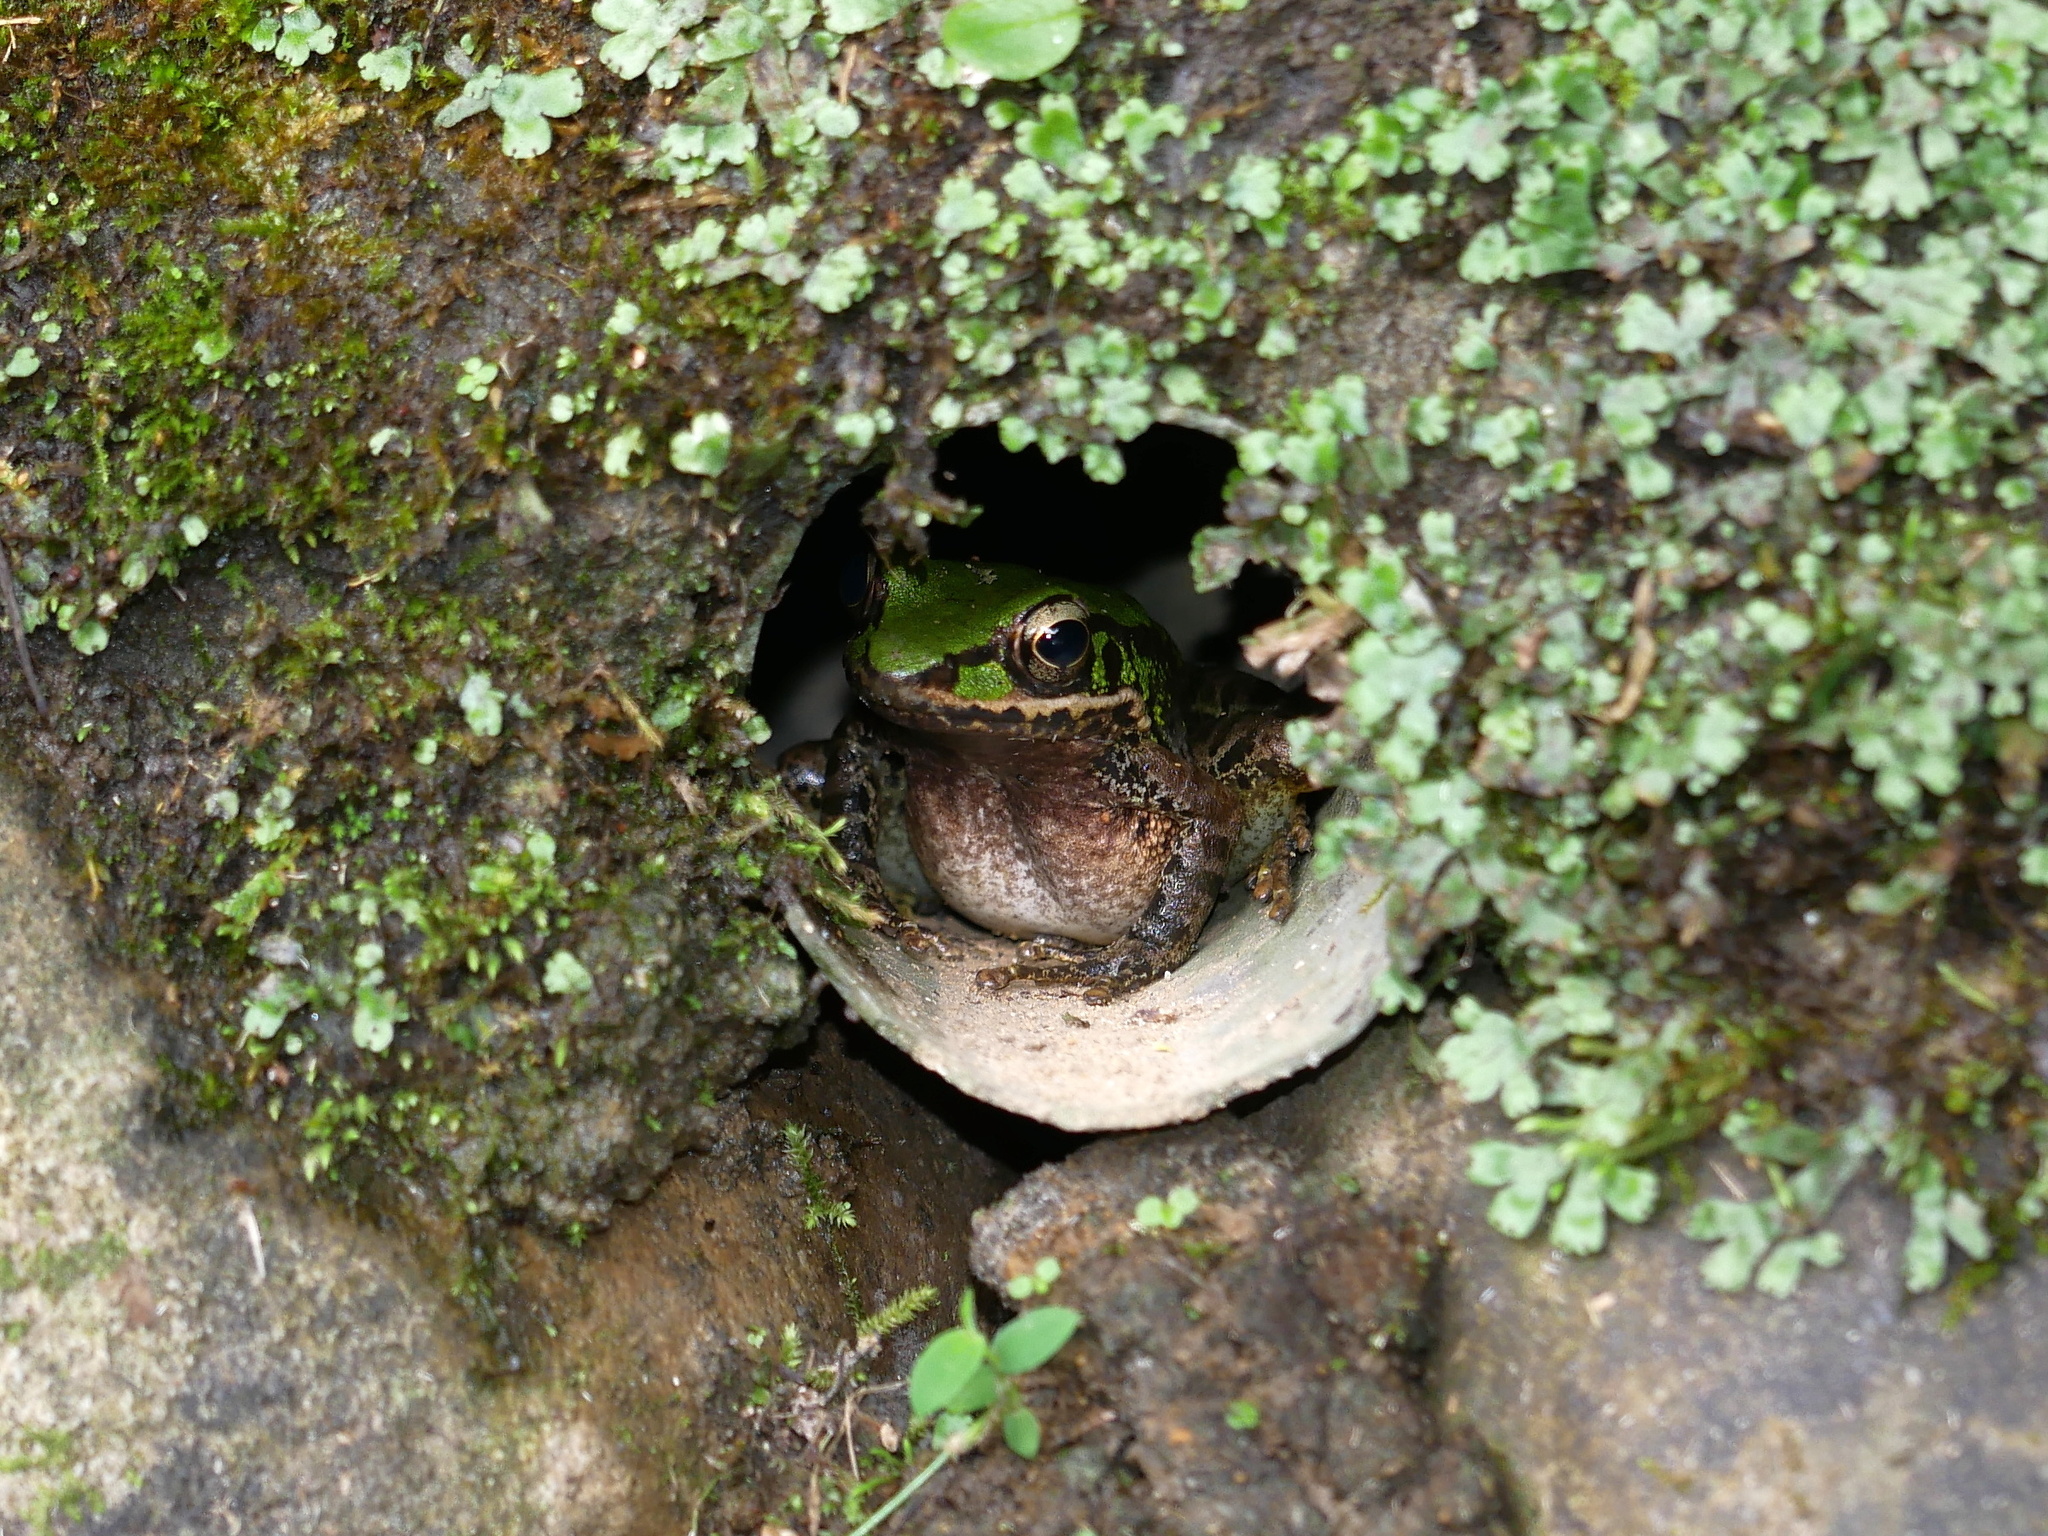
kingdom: Animalia
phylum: Chordata
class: Amphibia
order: Anura
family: Ranidae
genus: Odorrana
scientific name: Odorrana swinhoana
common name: Bangkimtsing frog
